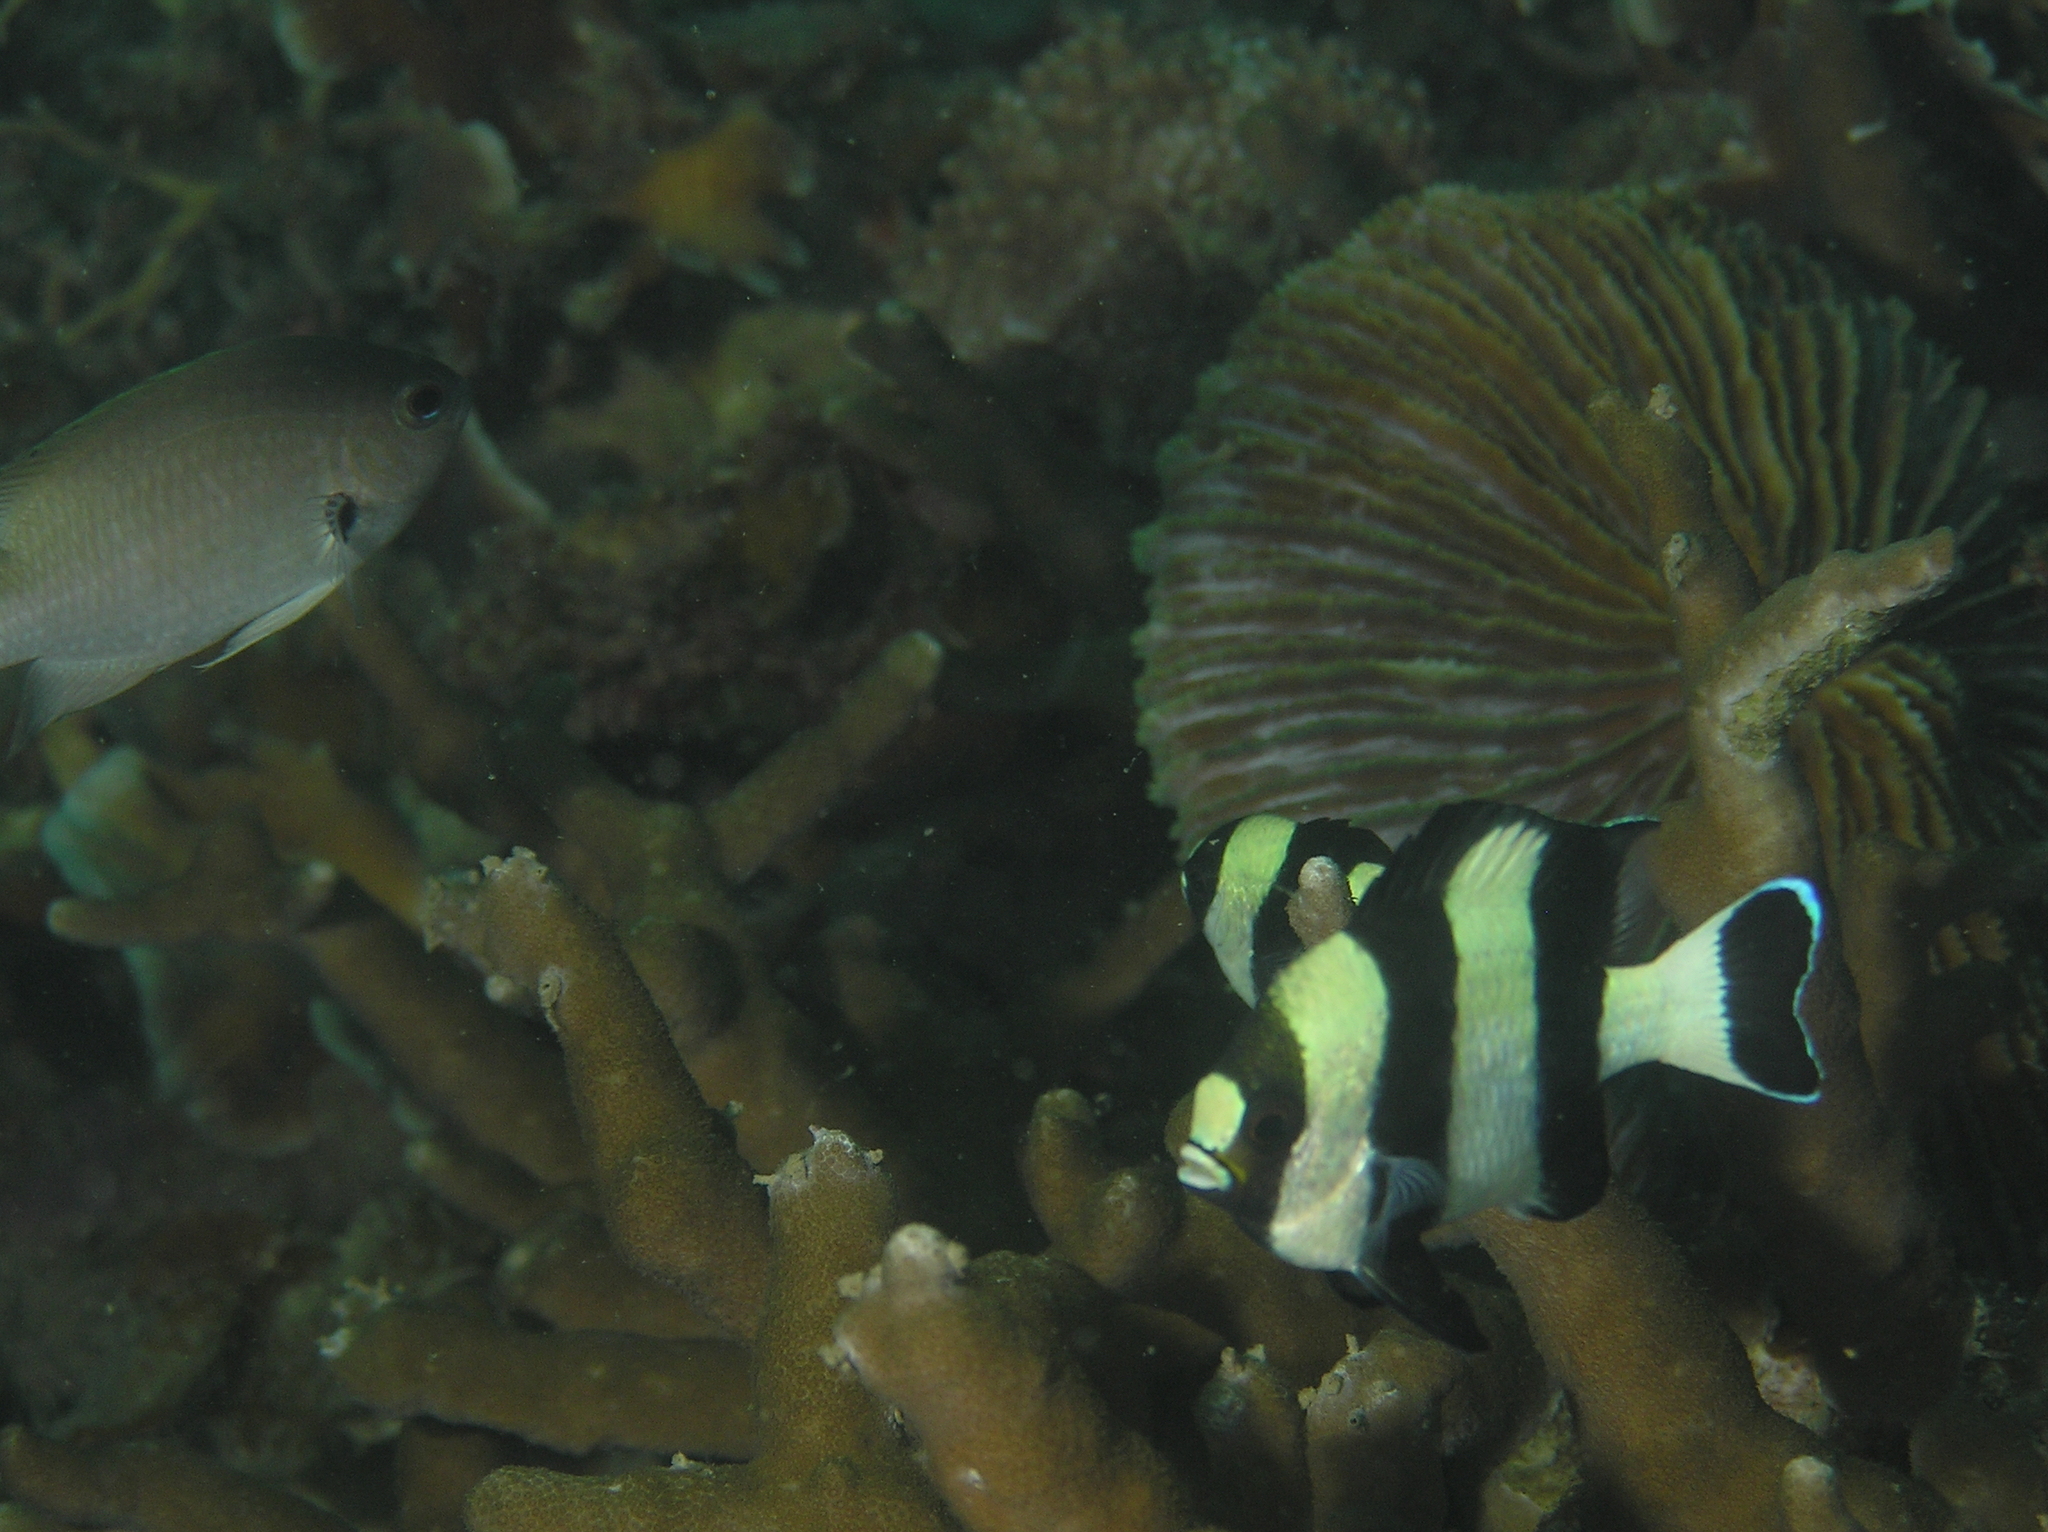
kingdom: Animalia
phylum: Chordata
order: Perciformes
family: Pomacentridae
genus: Dascyllus
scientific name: Dascyllus melanurus
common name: Black-tail dascyllus
